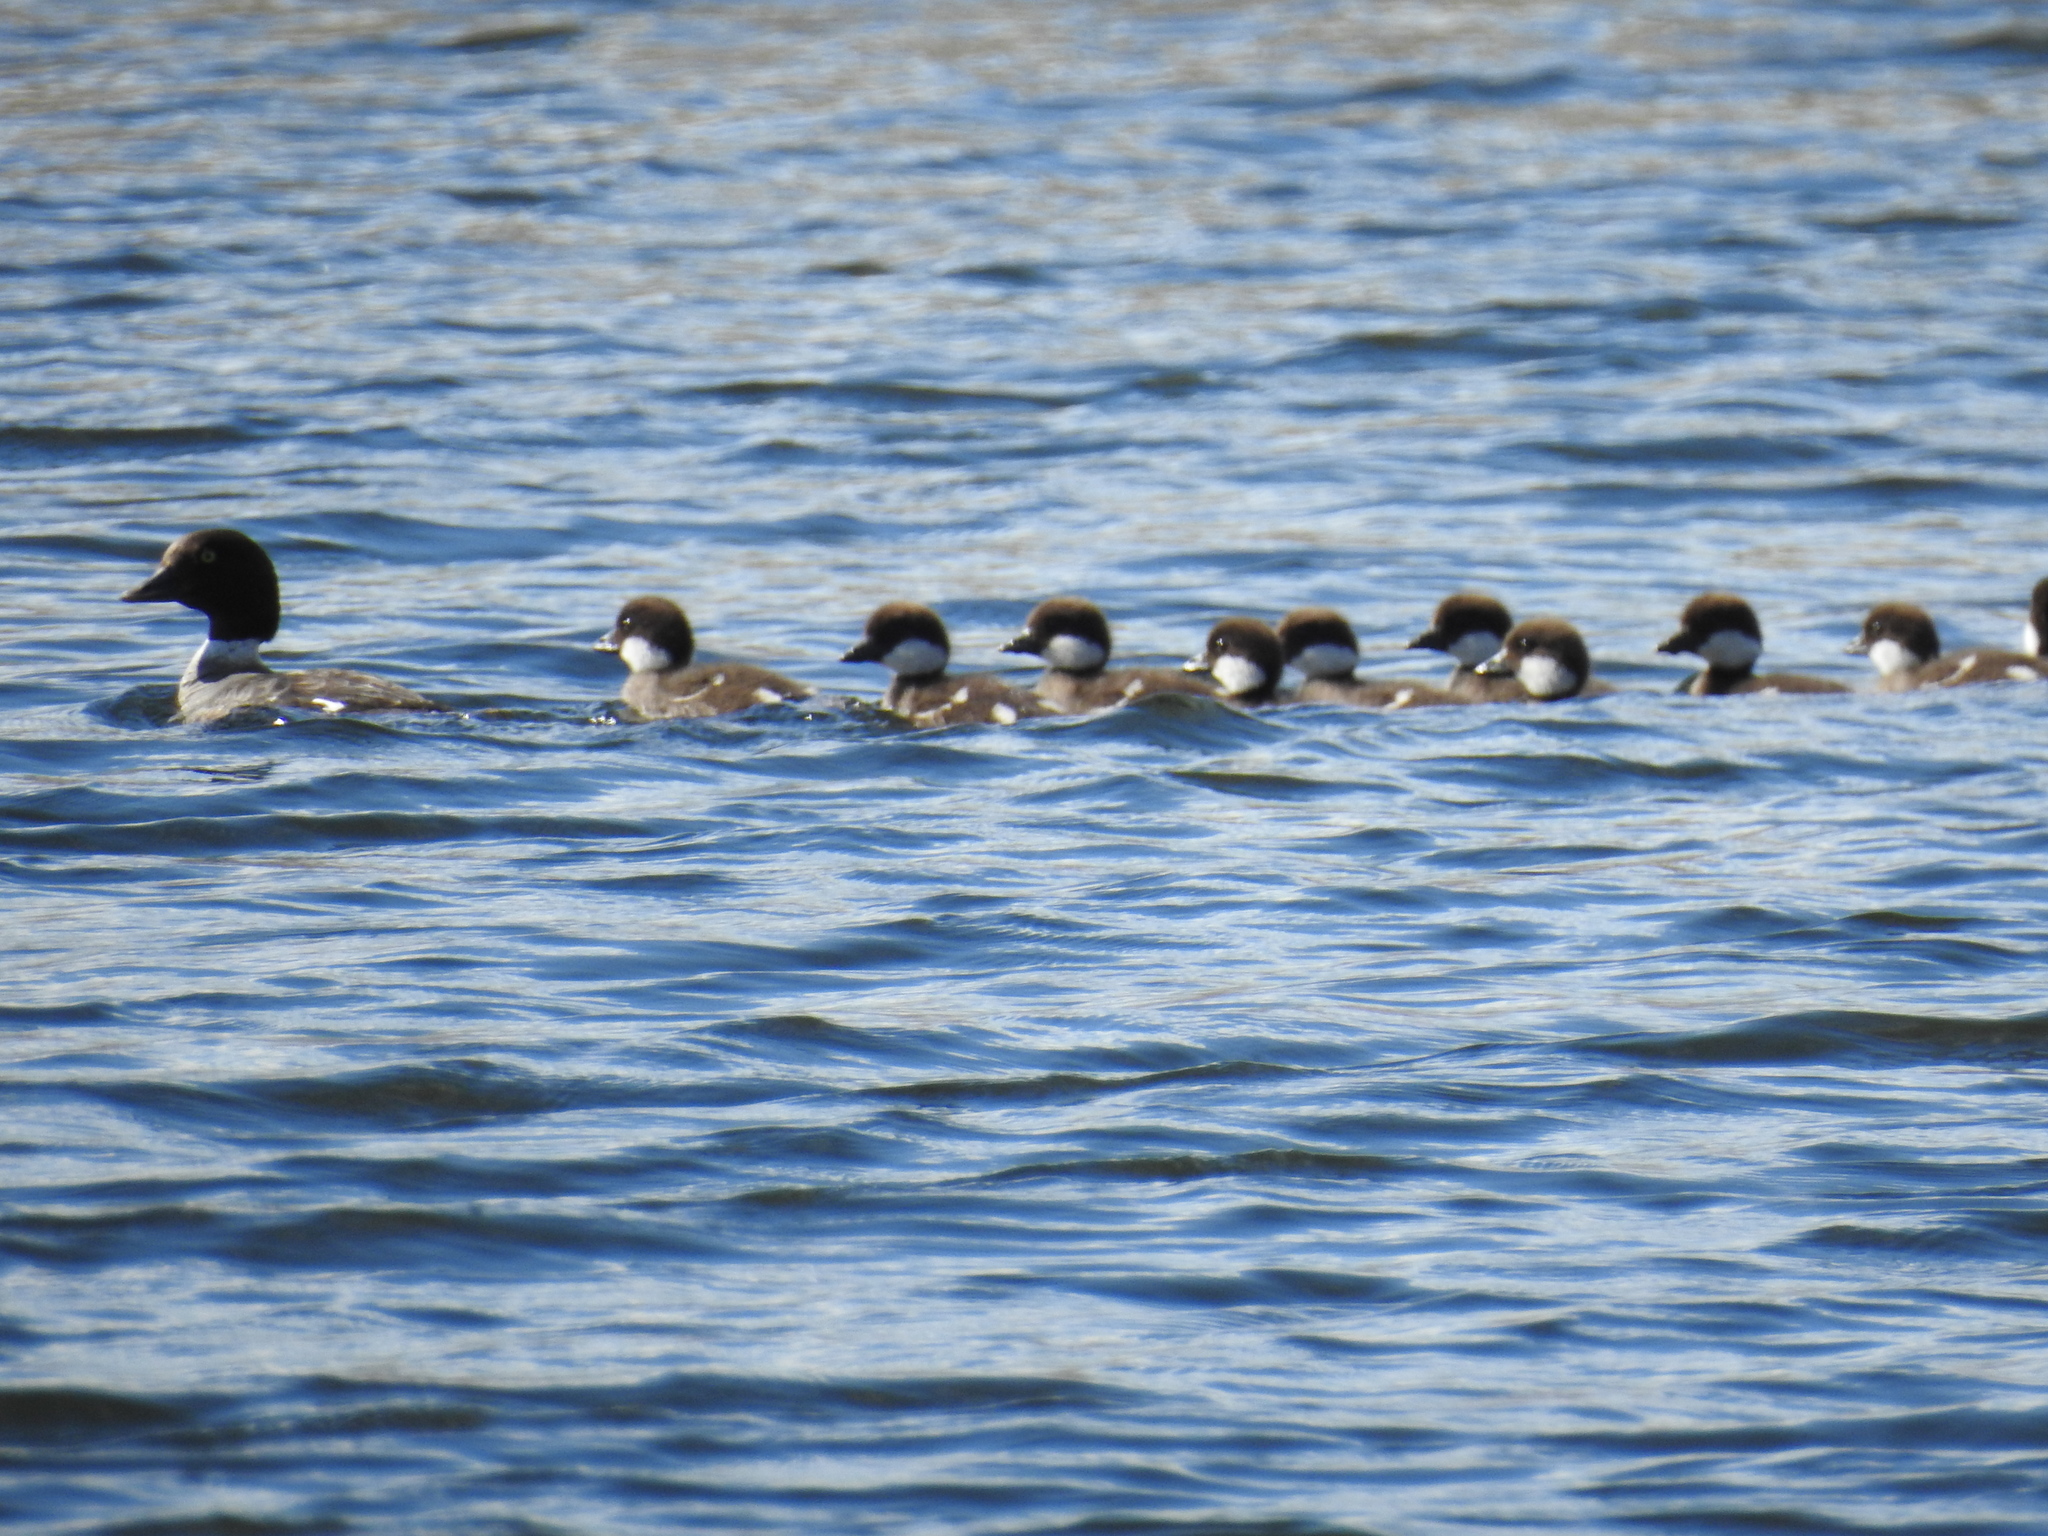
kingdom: Animalia
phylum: Chordata
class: Aves
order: Anseriformes
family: Anatidae
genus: Bucephala
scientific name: Bucephala clangula
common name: Common goldeneye
